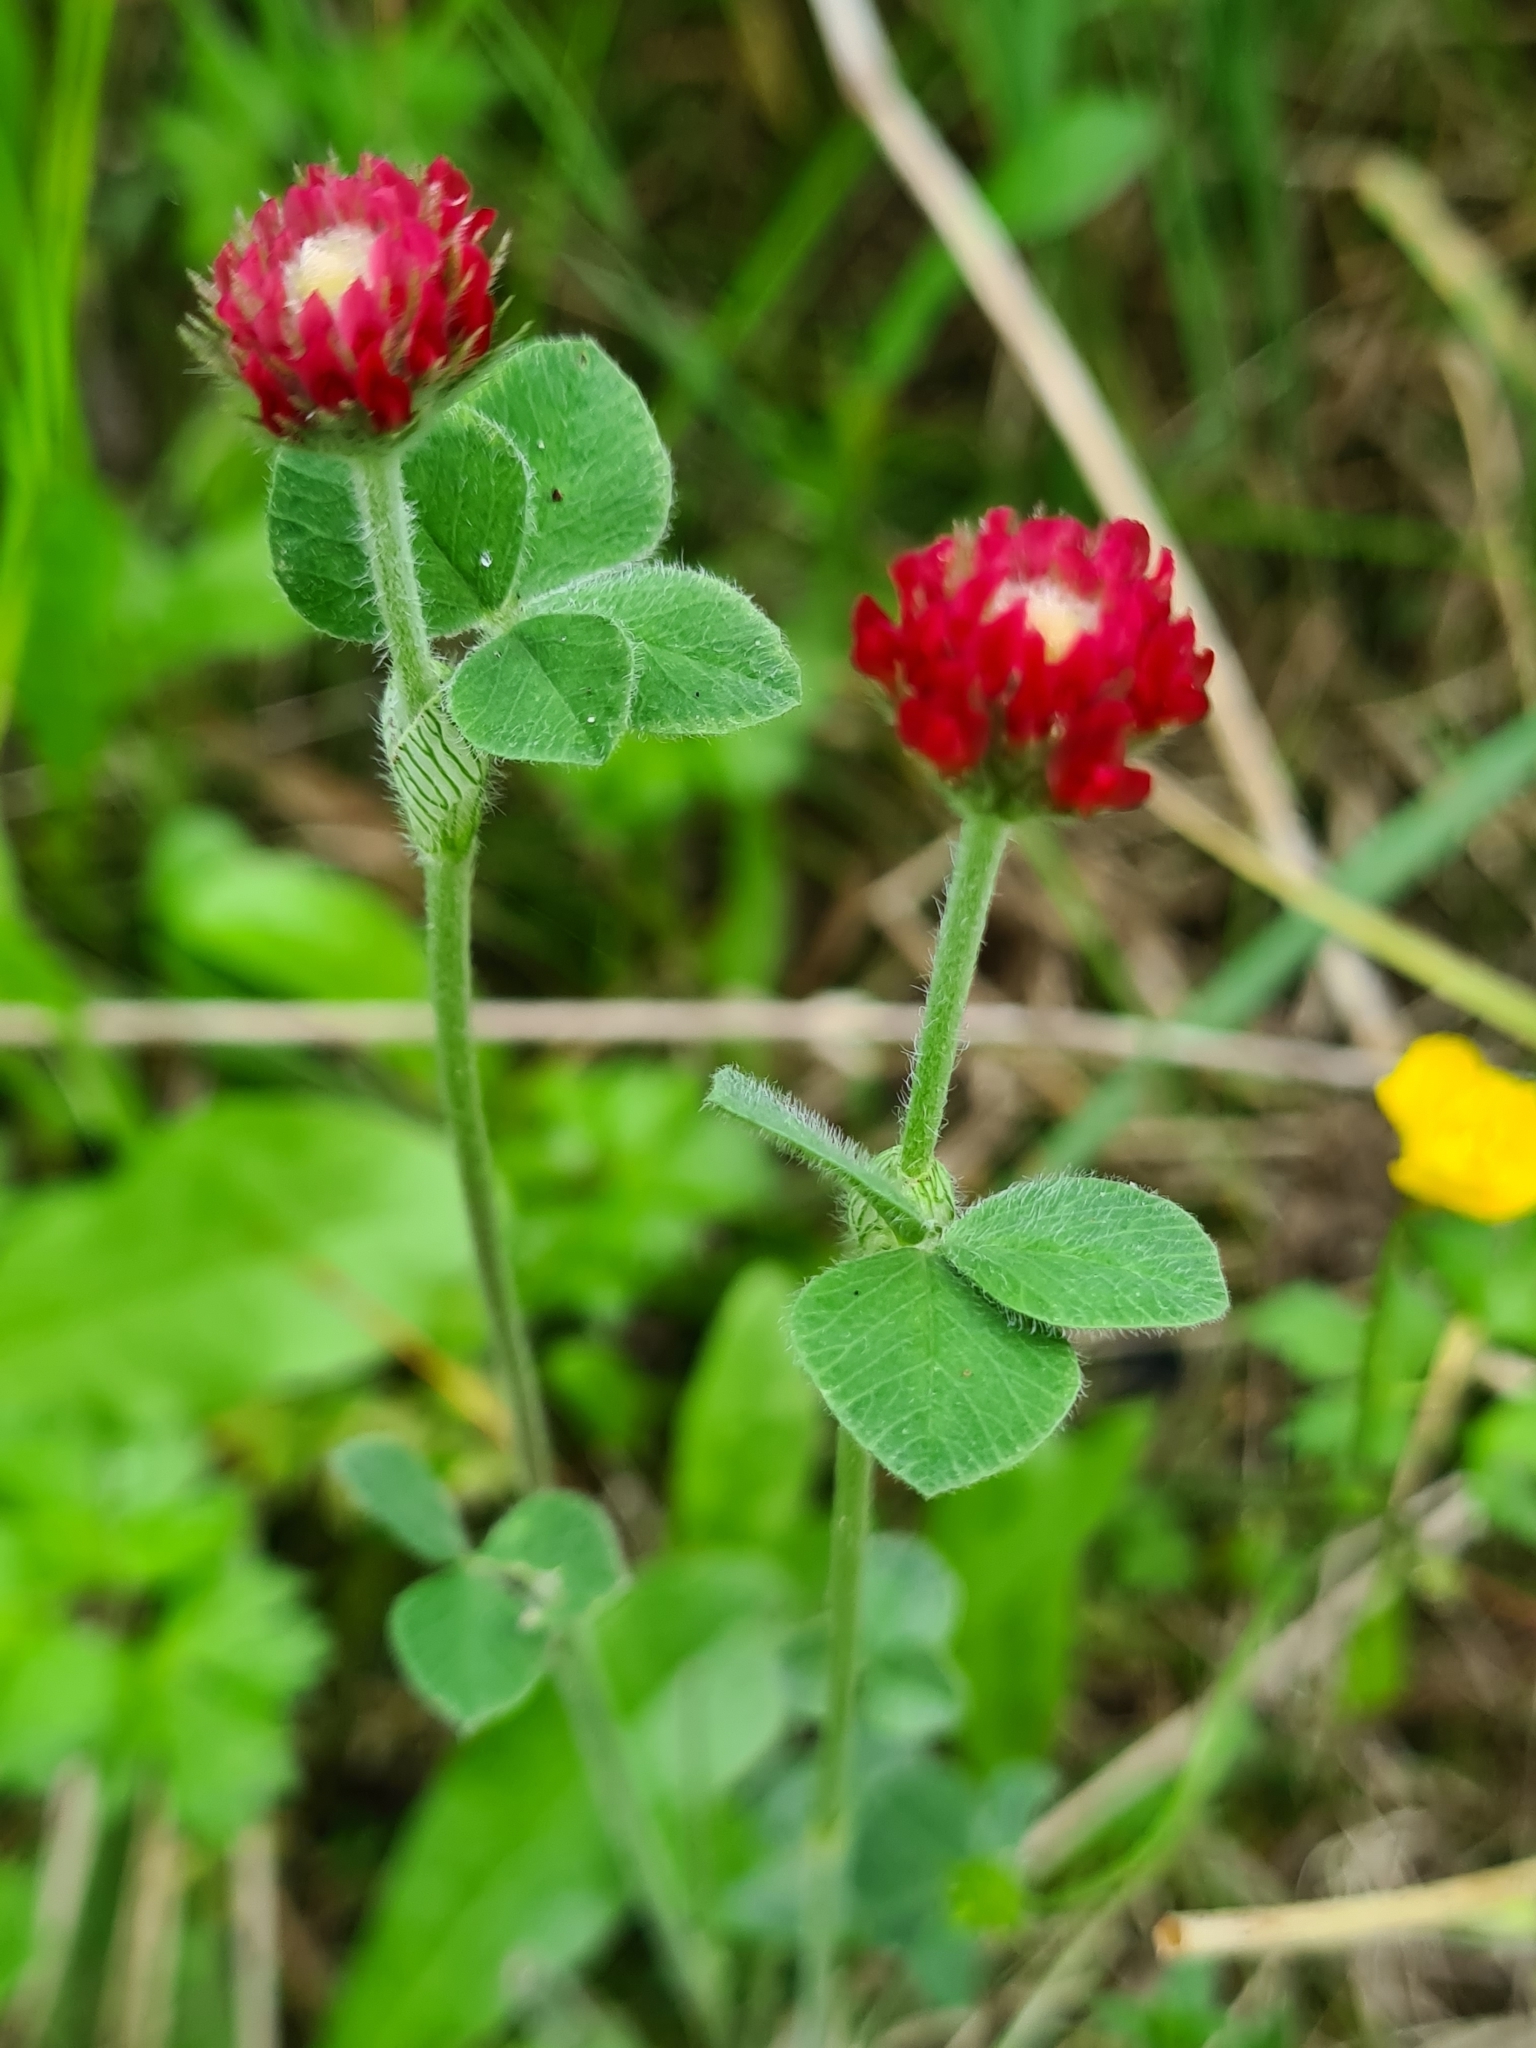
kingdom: Plantae
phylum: Tracheophyta
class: Magnoliopsida
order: Fabales
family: Fabaceae
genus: Trifolium
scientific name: Trifolium incarnatum
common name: Crimson clover
